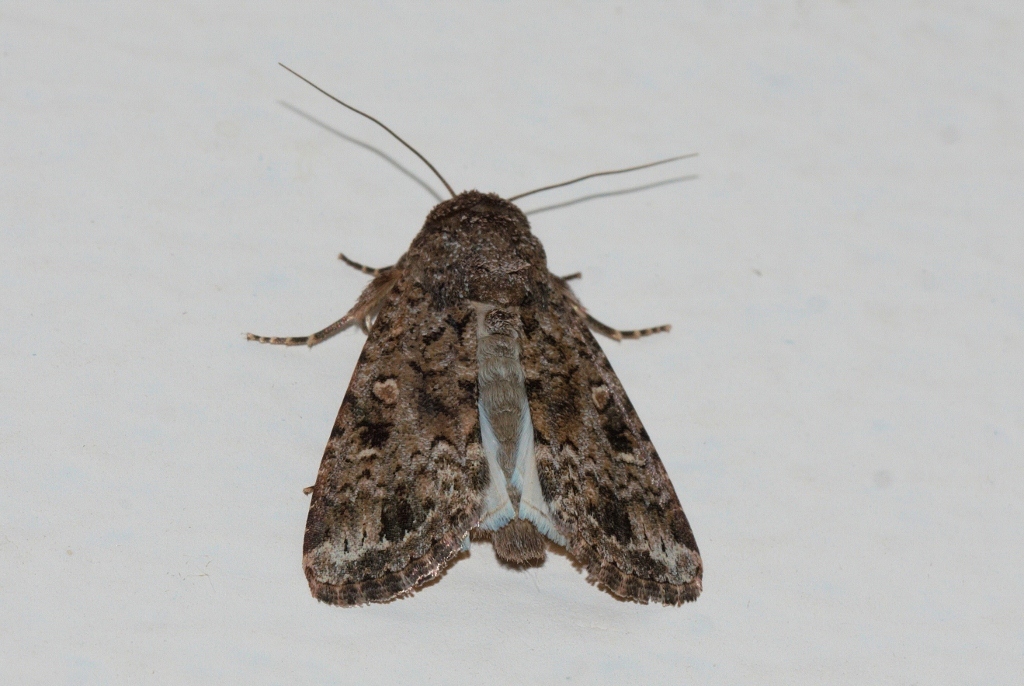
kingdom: Animalia
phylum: Arthropoda
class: Insecta
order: Lepidoptera
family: Noctuidae
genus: Spodoptera
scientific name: Spodoptera mauritia
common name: Lawn armyworm
